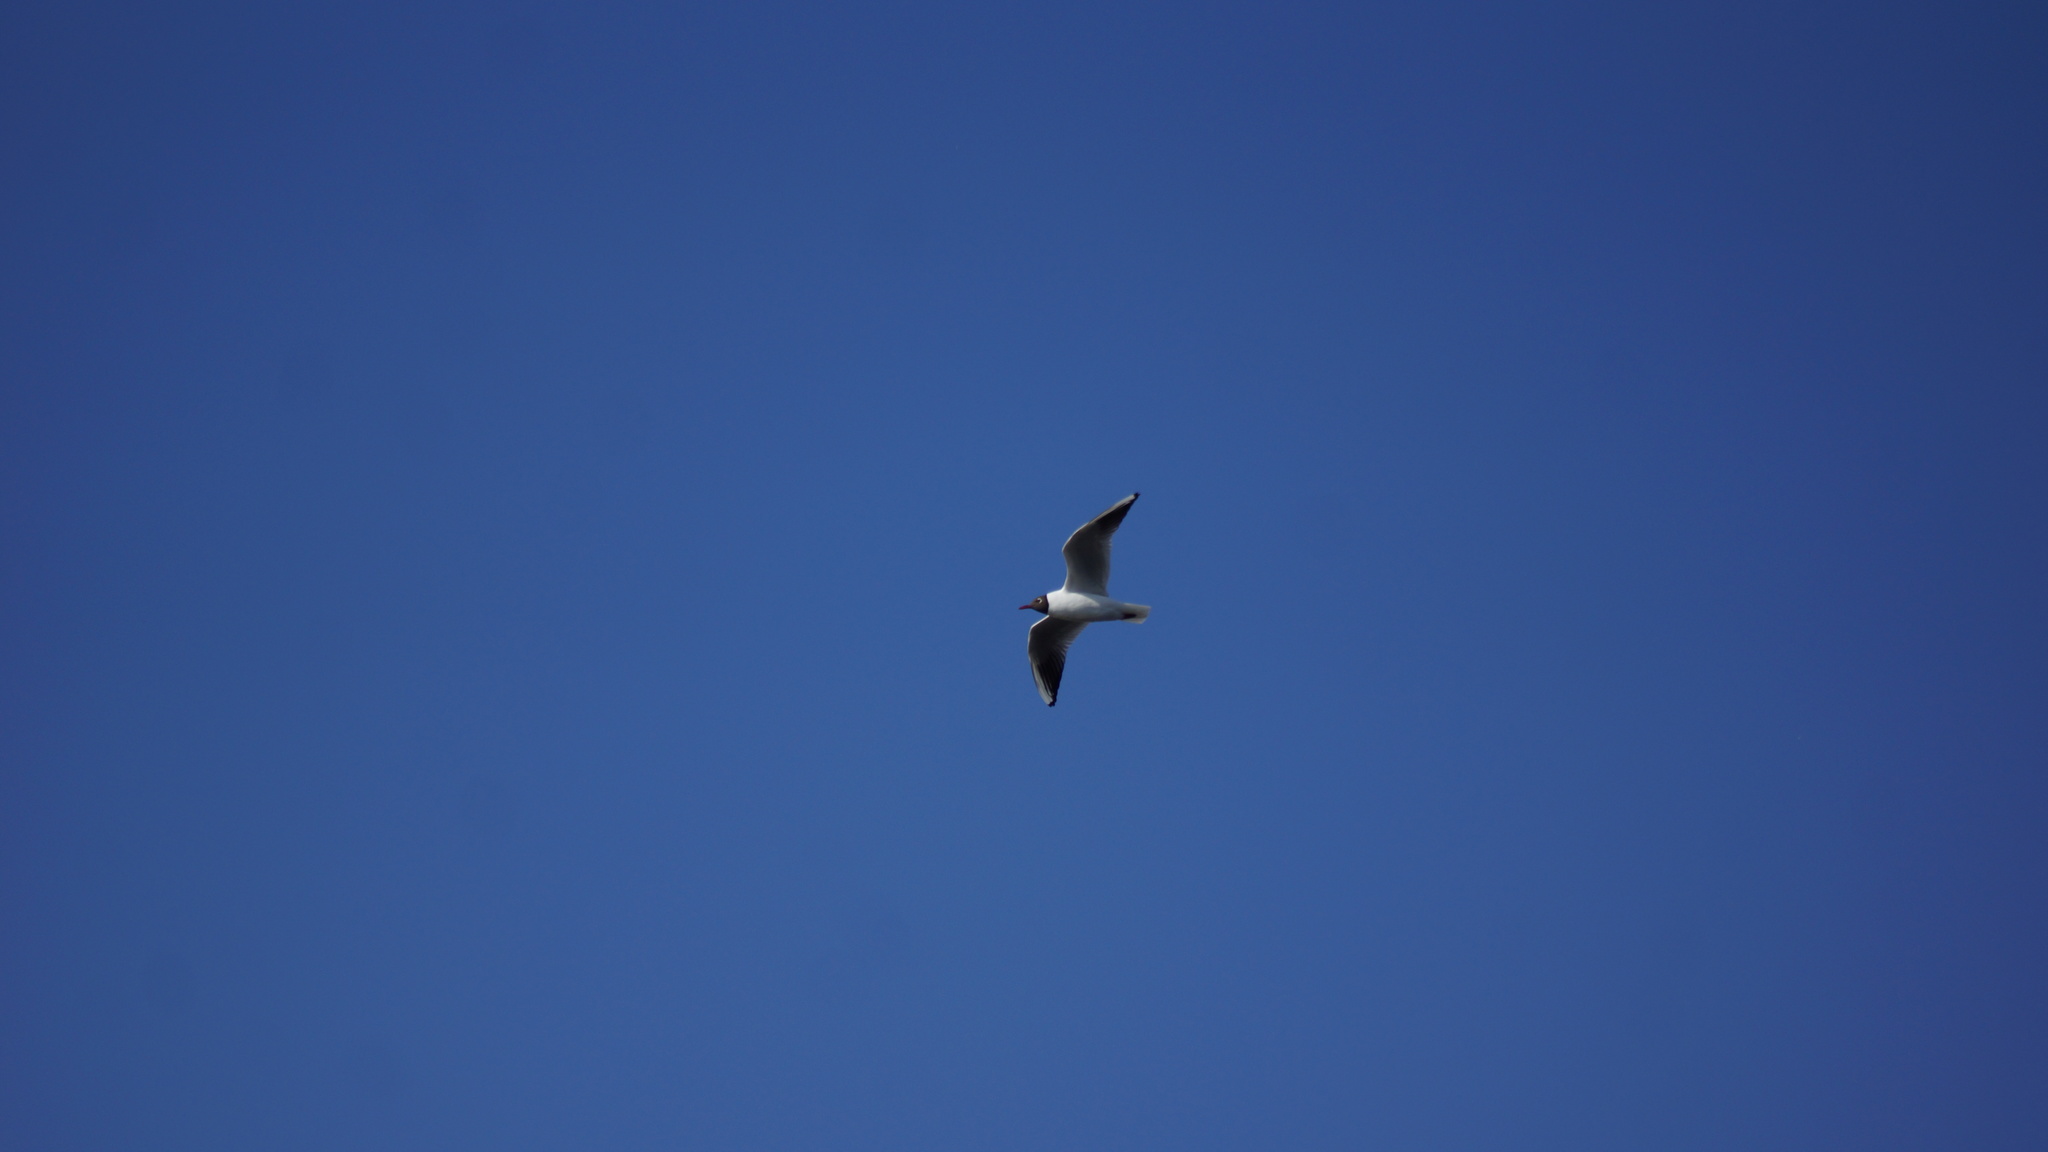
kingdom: Animalia
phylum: Chordata
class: Aves
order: Charadriiformes
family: Laridae
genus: Chroicocephalus
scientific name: Chroicocephalus ridibundus
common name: Black-headed gull
